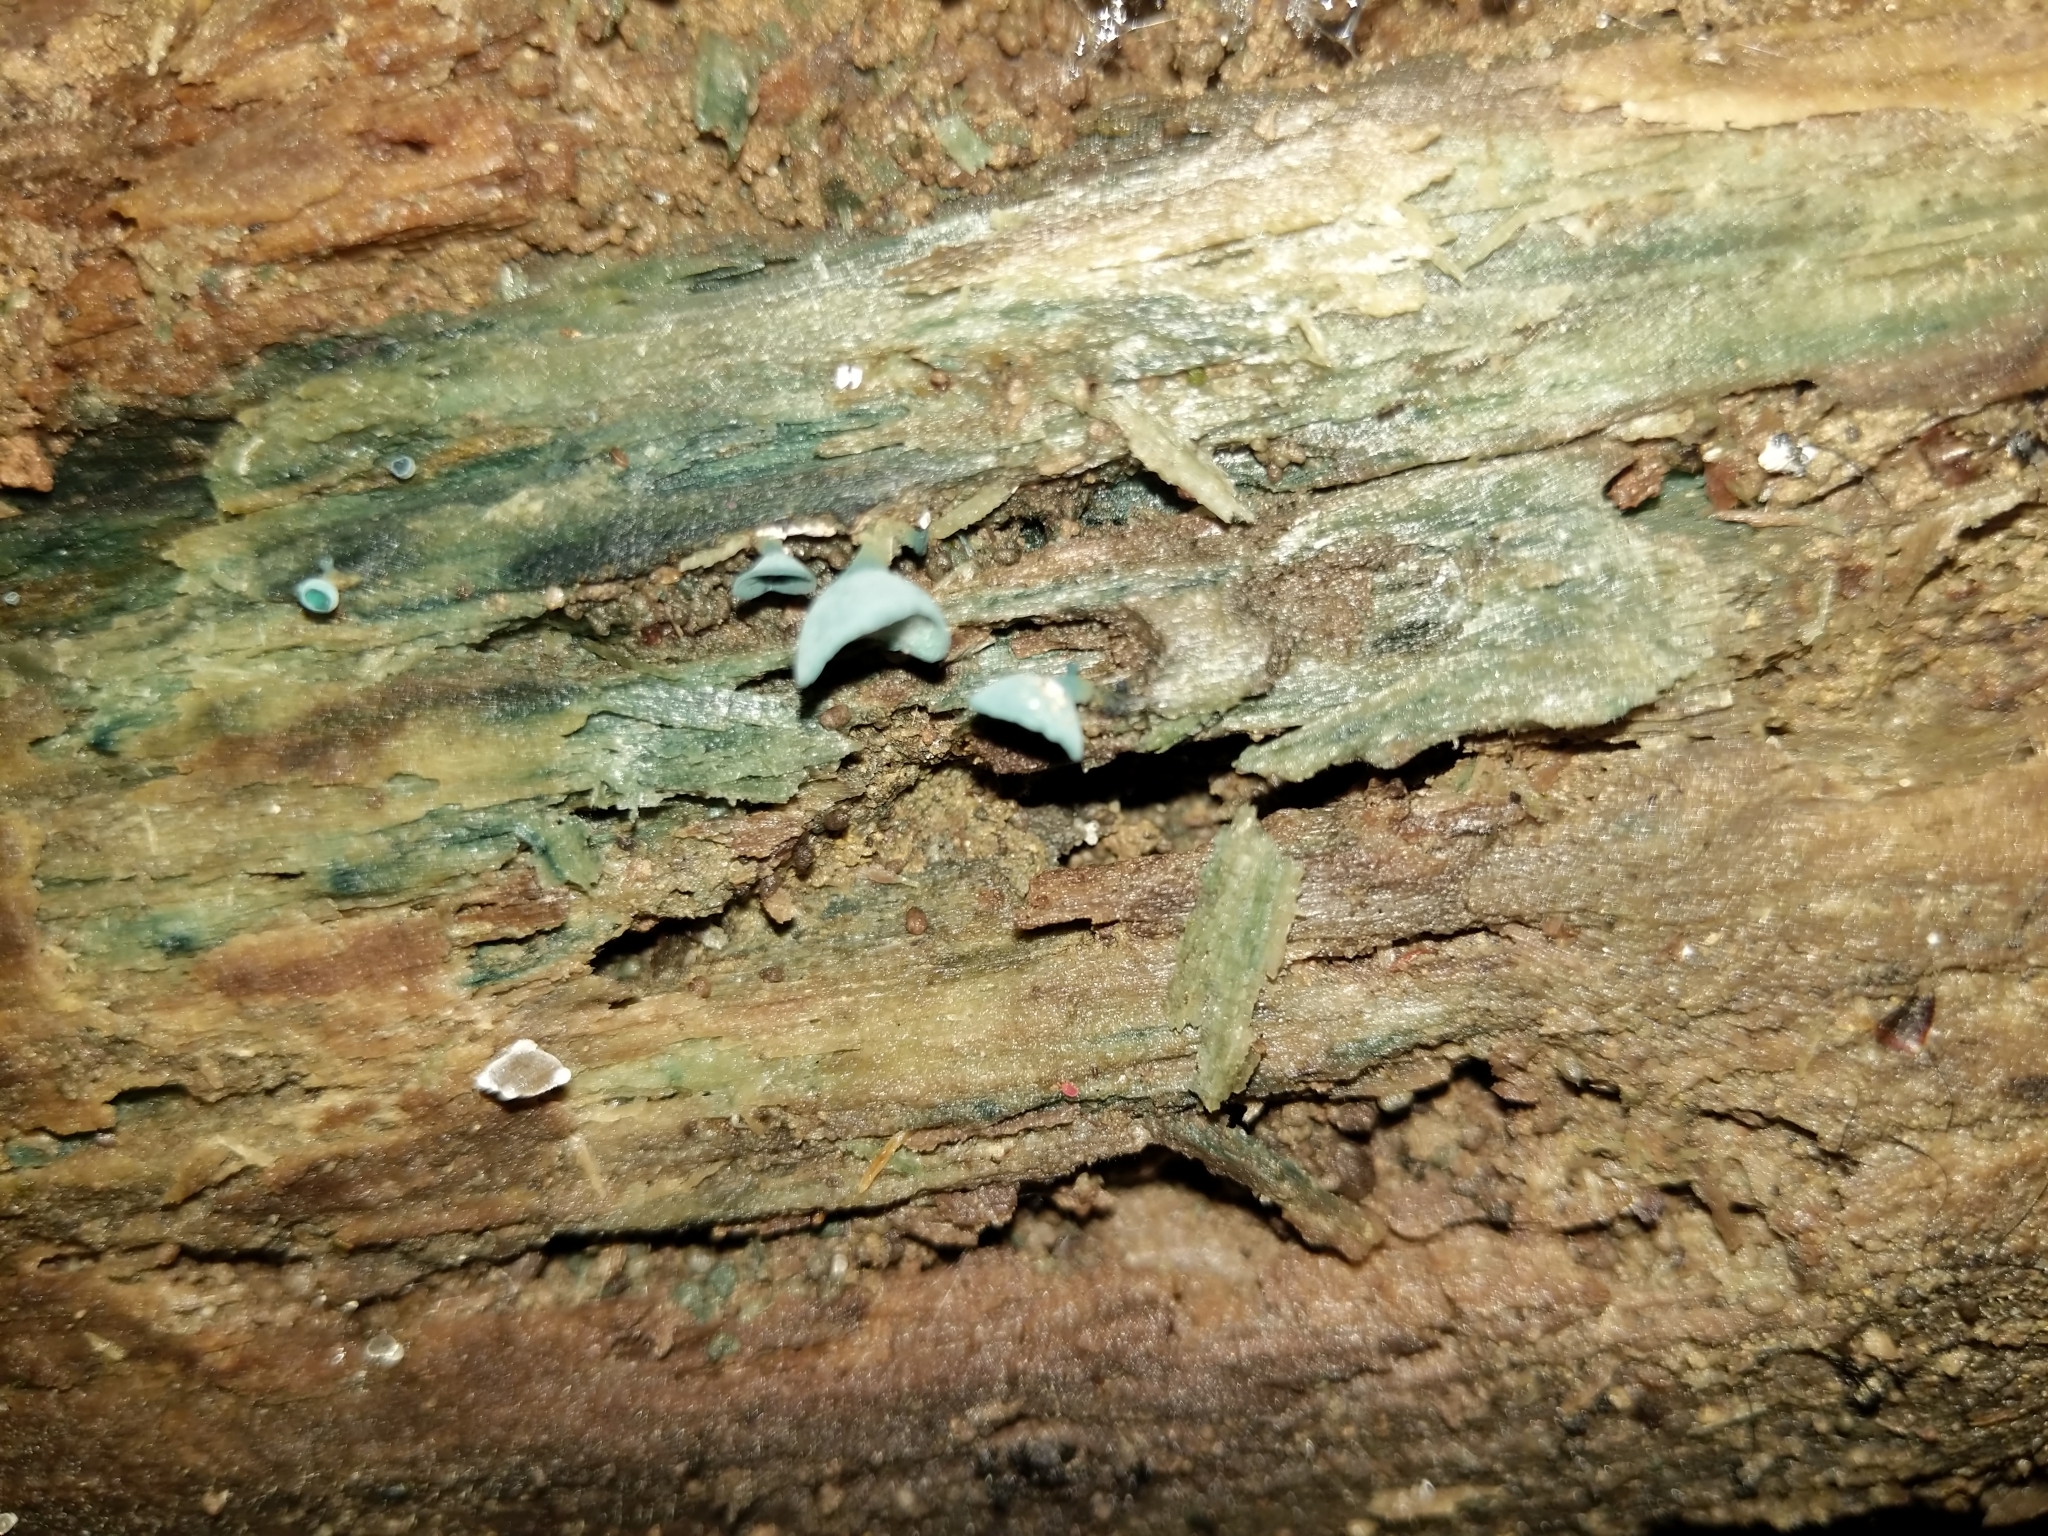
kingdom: Fungi
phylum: Ascomycota
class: Leotiomycetes
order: Helotiales
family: Chlorociboriaceae
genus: Chlorociboria
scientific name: Chlorociboria aeruginascens
